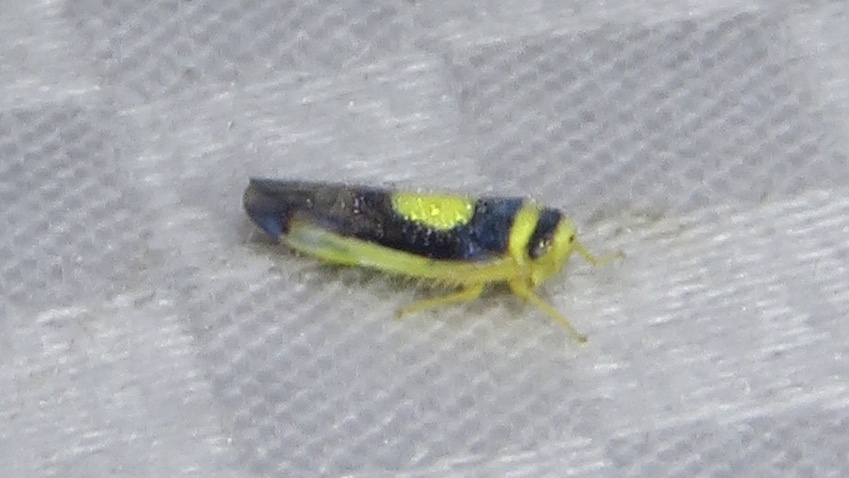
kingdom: Animalia
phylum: Arthropoda
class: Insecta
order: Hemiptera
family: Cicadellidae
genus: Colladonus
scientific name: Colladonus clitellarius
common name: The saddleback leafhopper
